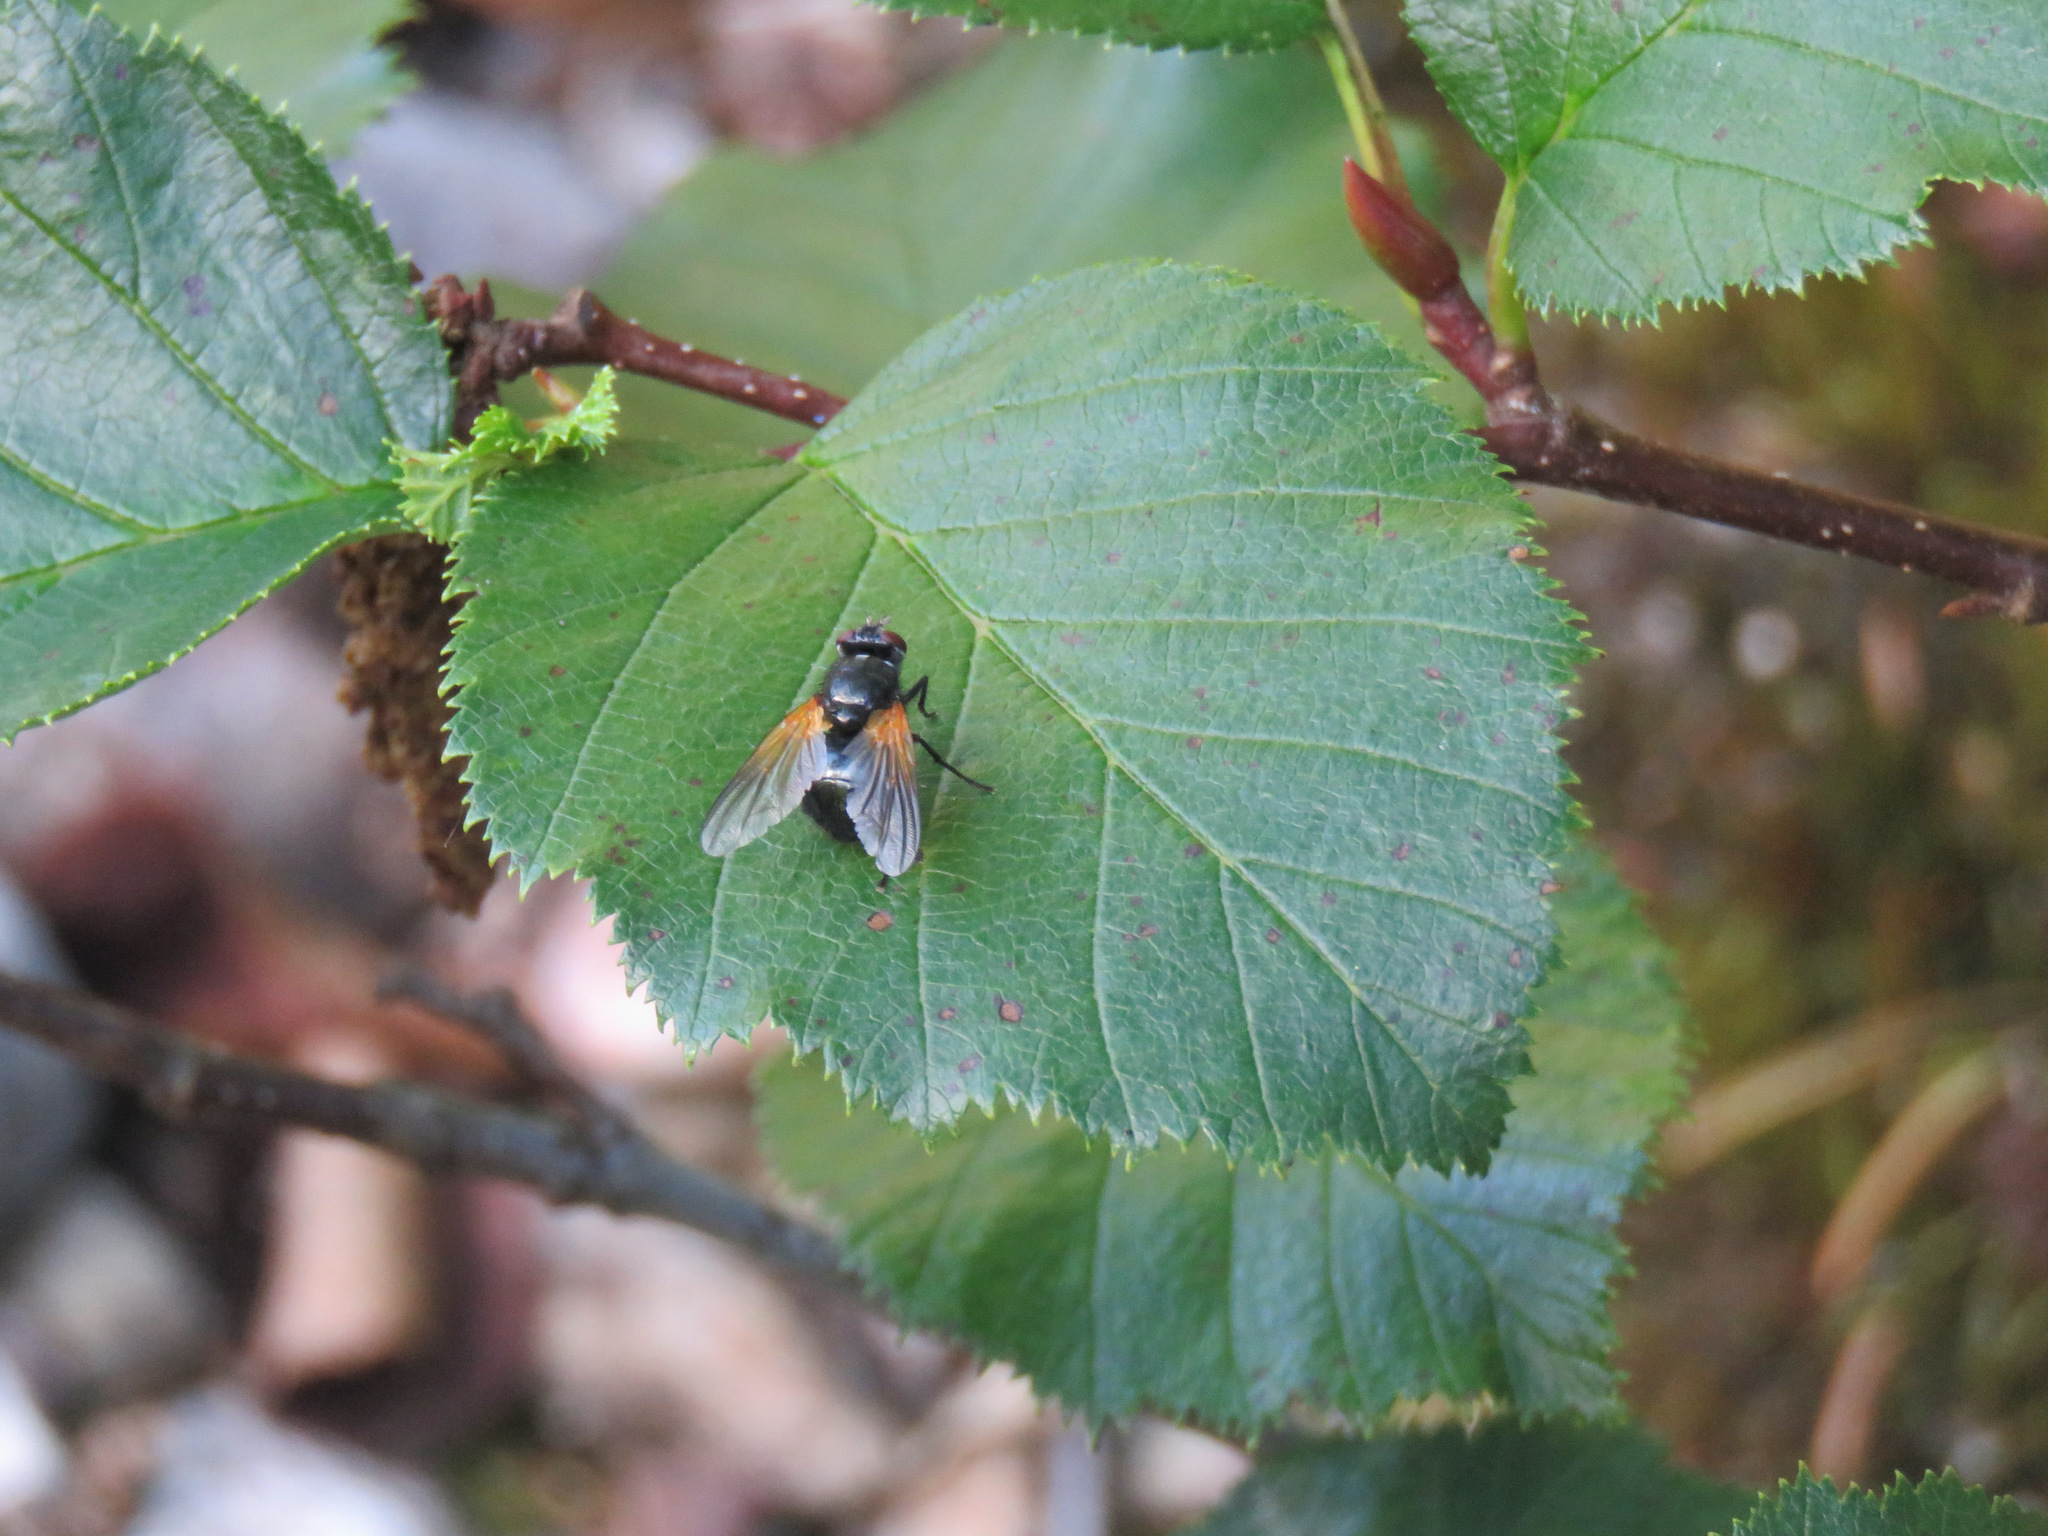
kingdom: Animalia
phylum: Arthropoda
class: Insecta
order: Diptera
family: Muscidae
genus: Mesembrina
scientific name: Mesembrina latreillii
